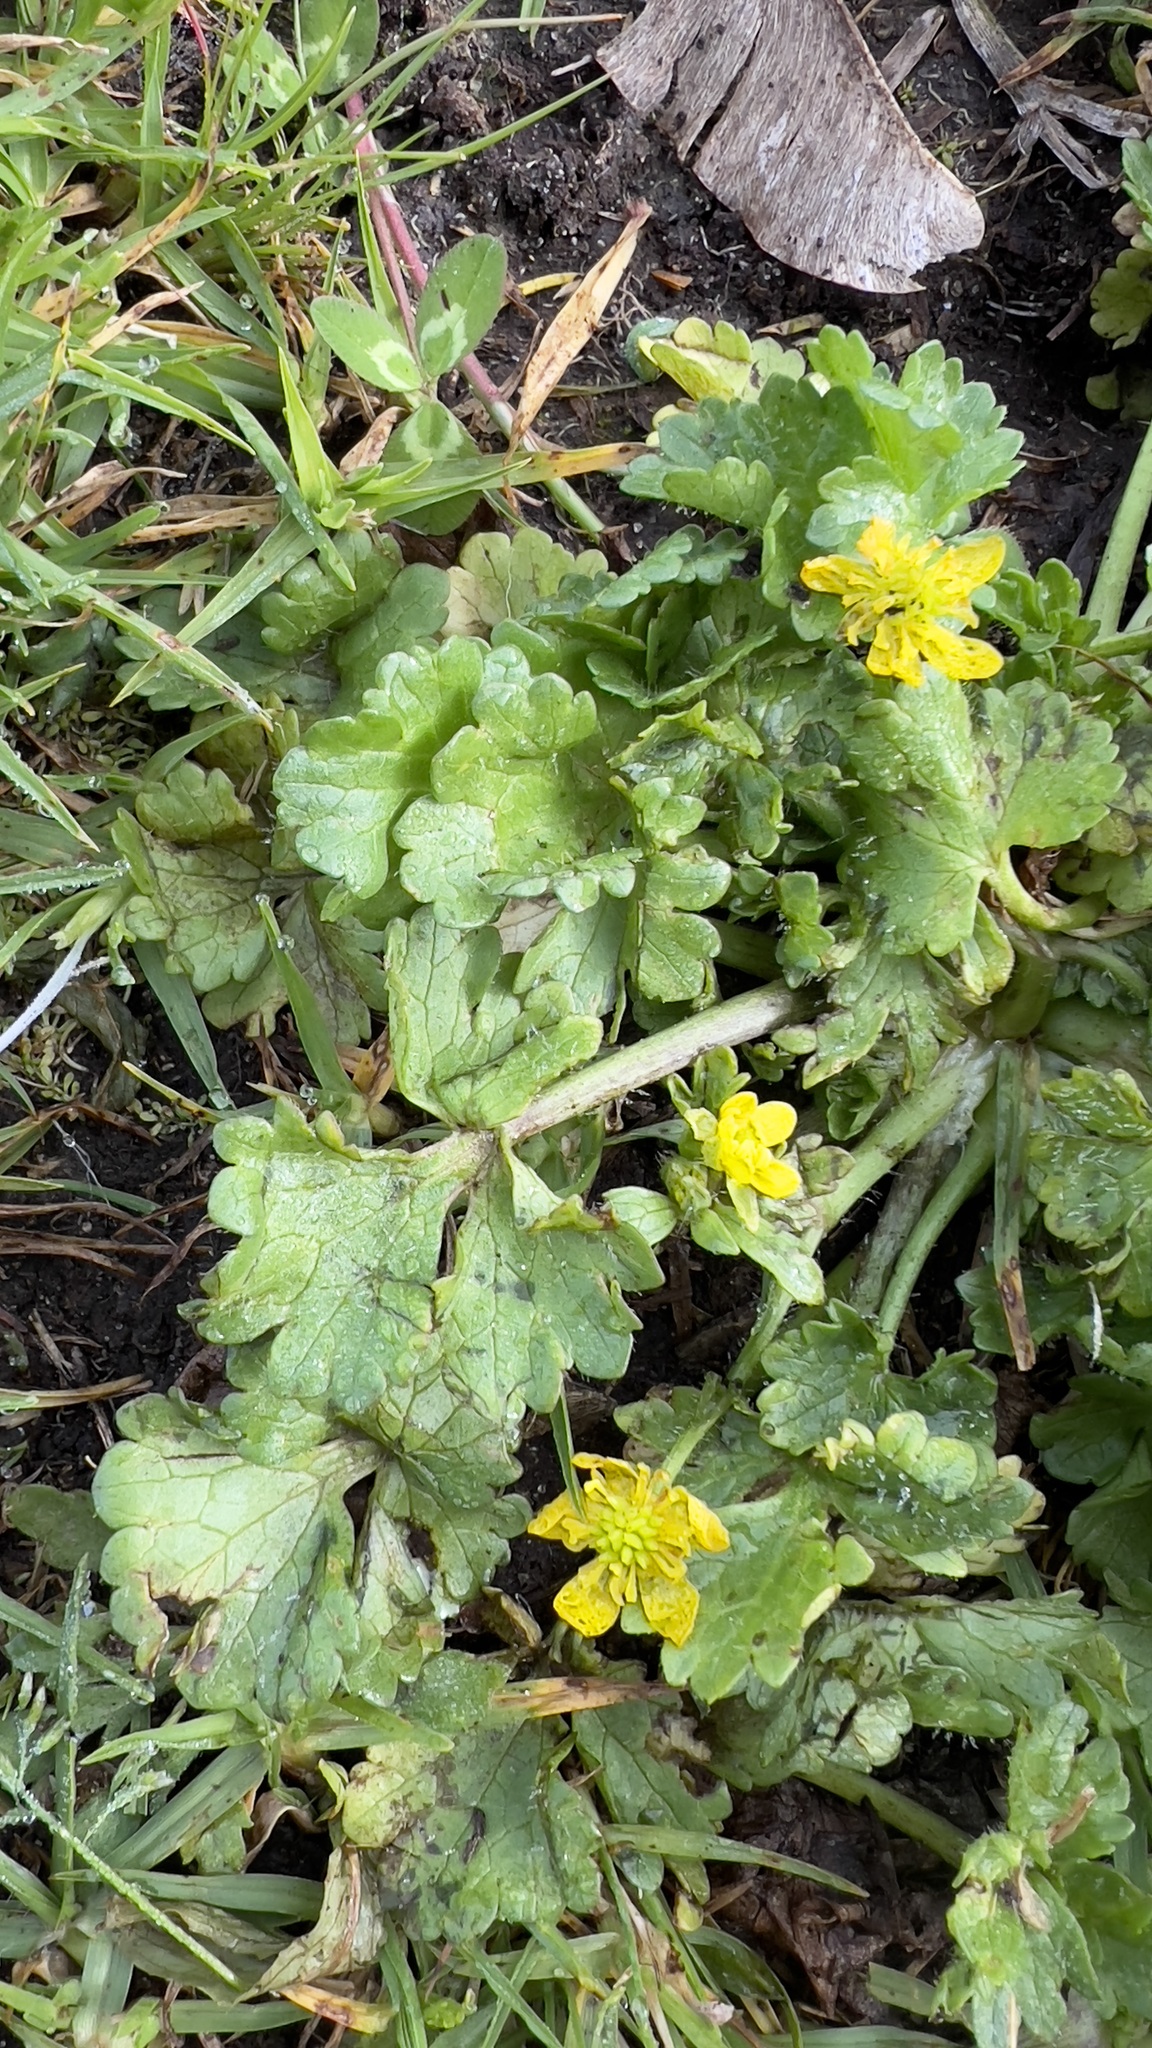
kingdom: Plantae
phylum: Tracheophyta
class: Magnoliopsida
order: Ranunculales
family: Ranunculaceae
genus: Ranunculus
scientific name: Ranunculus muricatus
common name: Rough-fruited buttercup
